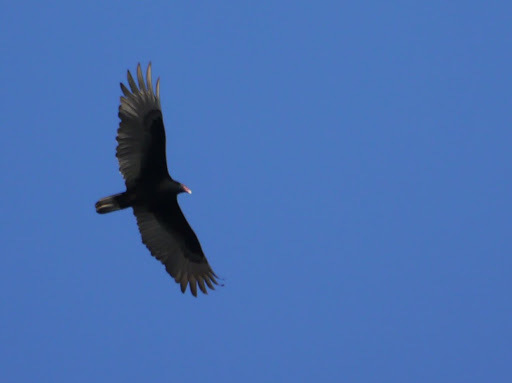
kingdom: Animalia
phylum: Chordata
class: Aves
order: Accipitriformes
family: Cathartidae
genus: Cathartes
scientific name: Cathartes aura
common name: Turkey vulture
